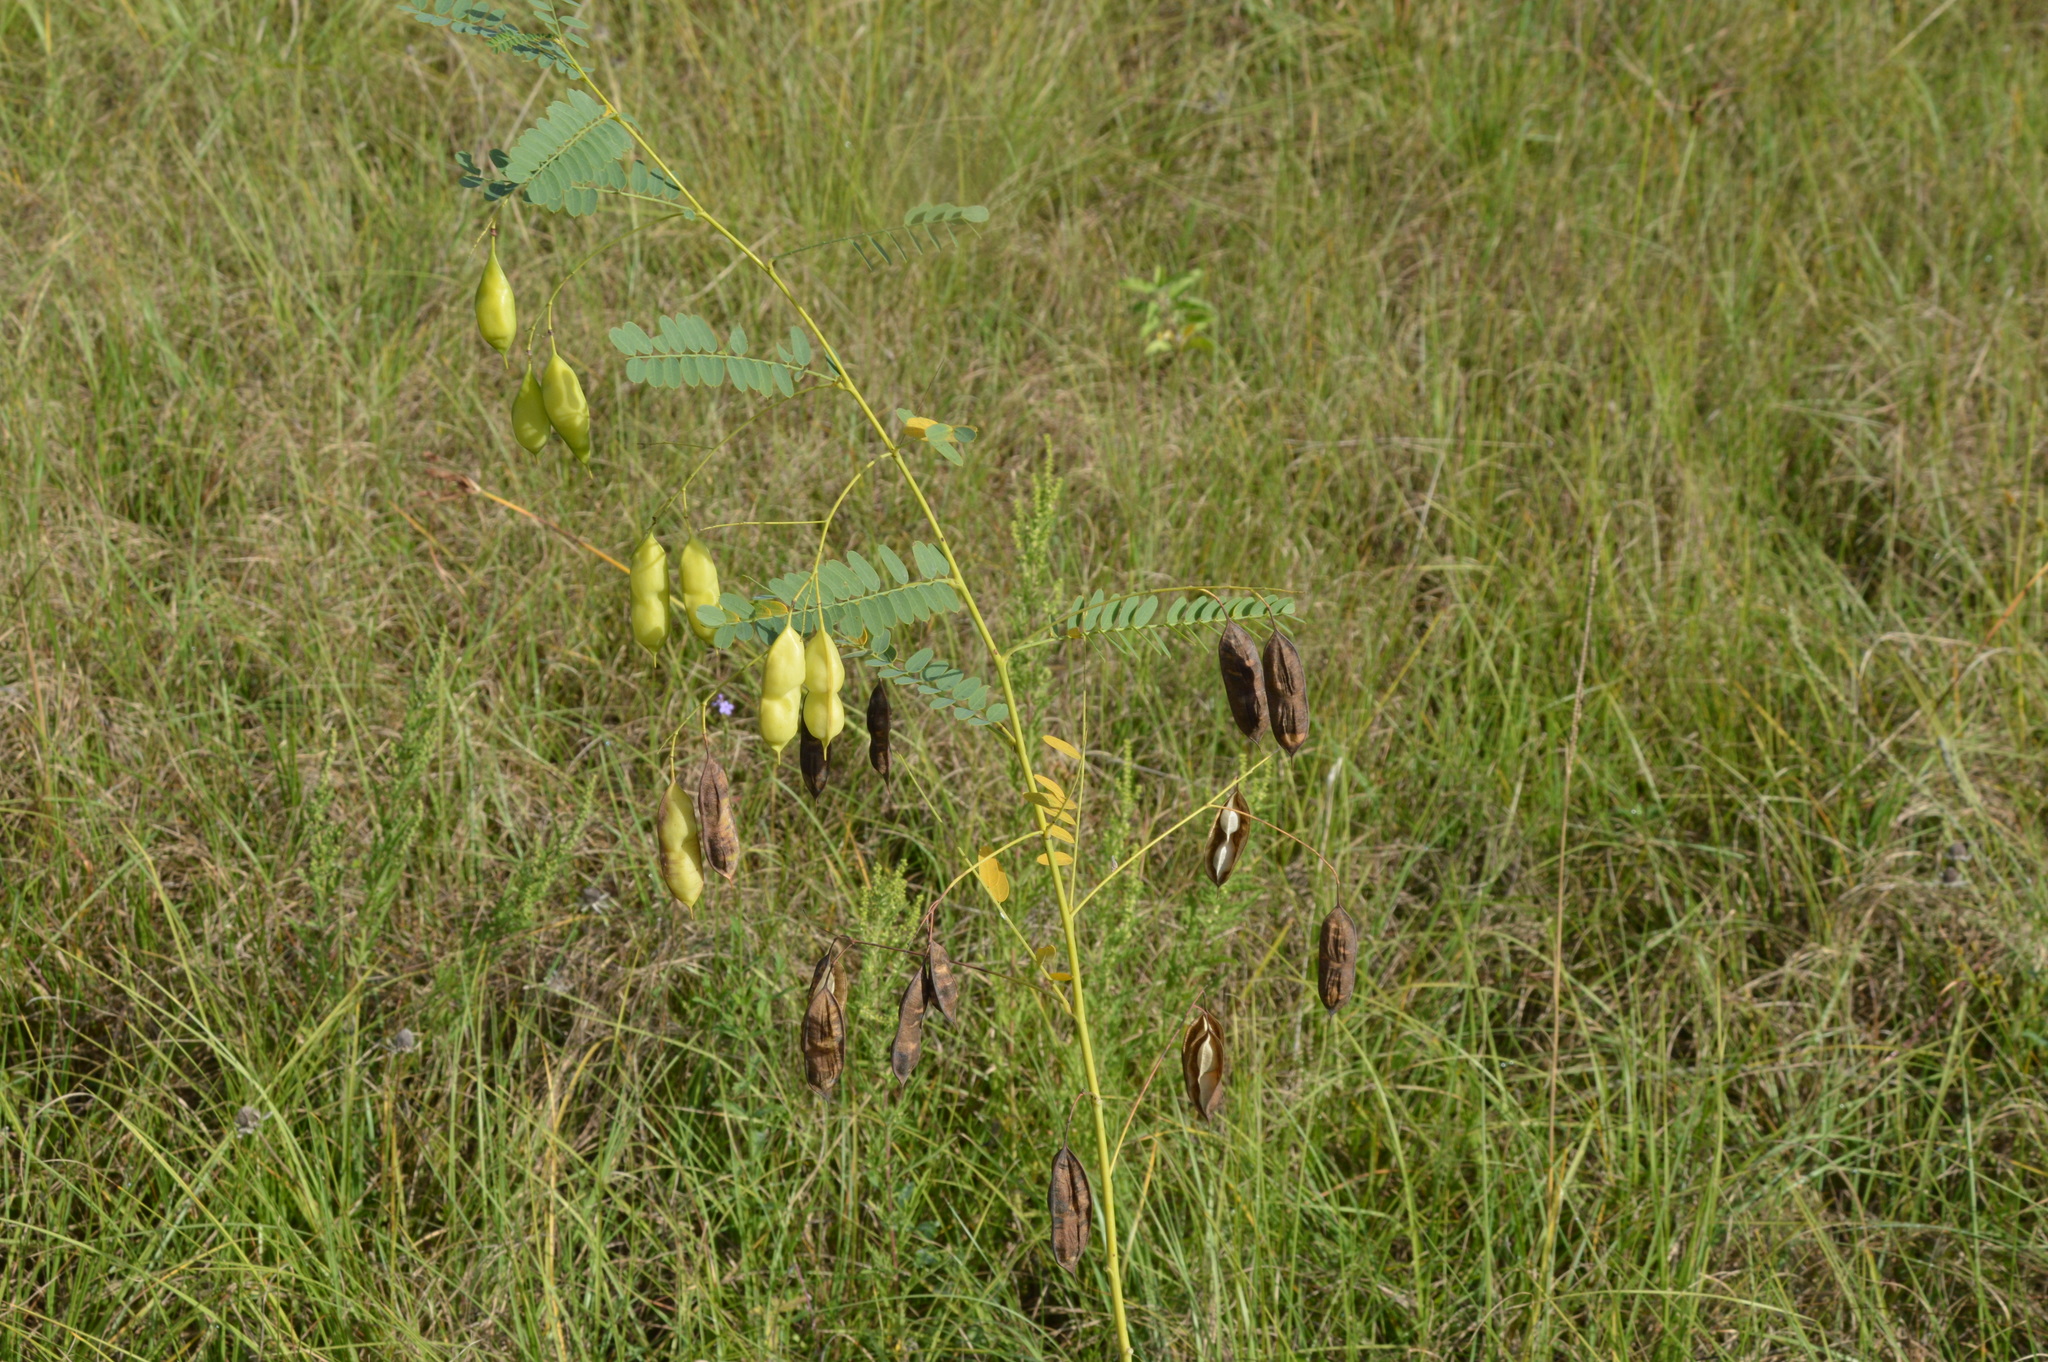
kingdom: Plantae
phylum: Tracheophyta
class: Magnoliopsida
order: Fabales
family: Fabaceae
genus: Sesbania
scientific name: Sesbania vesicaria
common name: Bagpod
